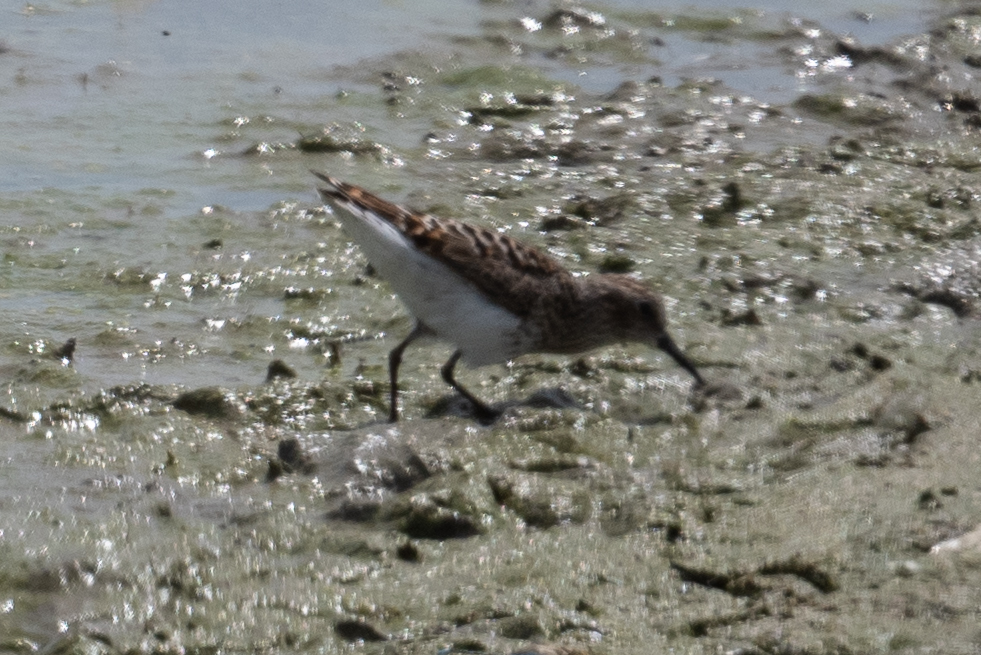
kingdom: Animalia
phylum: Chordata
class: Aves
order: Charadriiformes
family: Scolopacidae
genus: Calidris
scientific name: Calidris minutilla
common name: Least sandpiper
